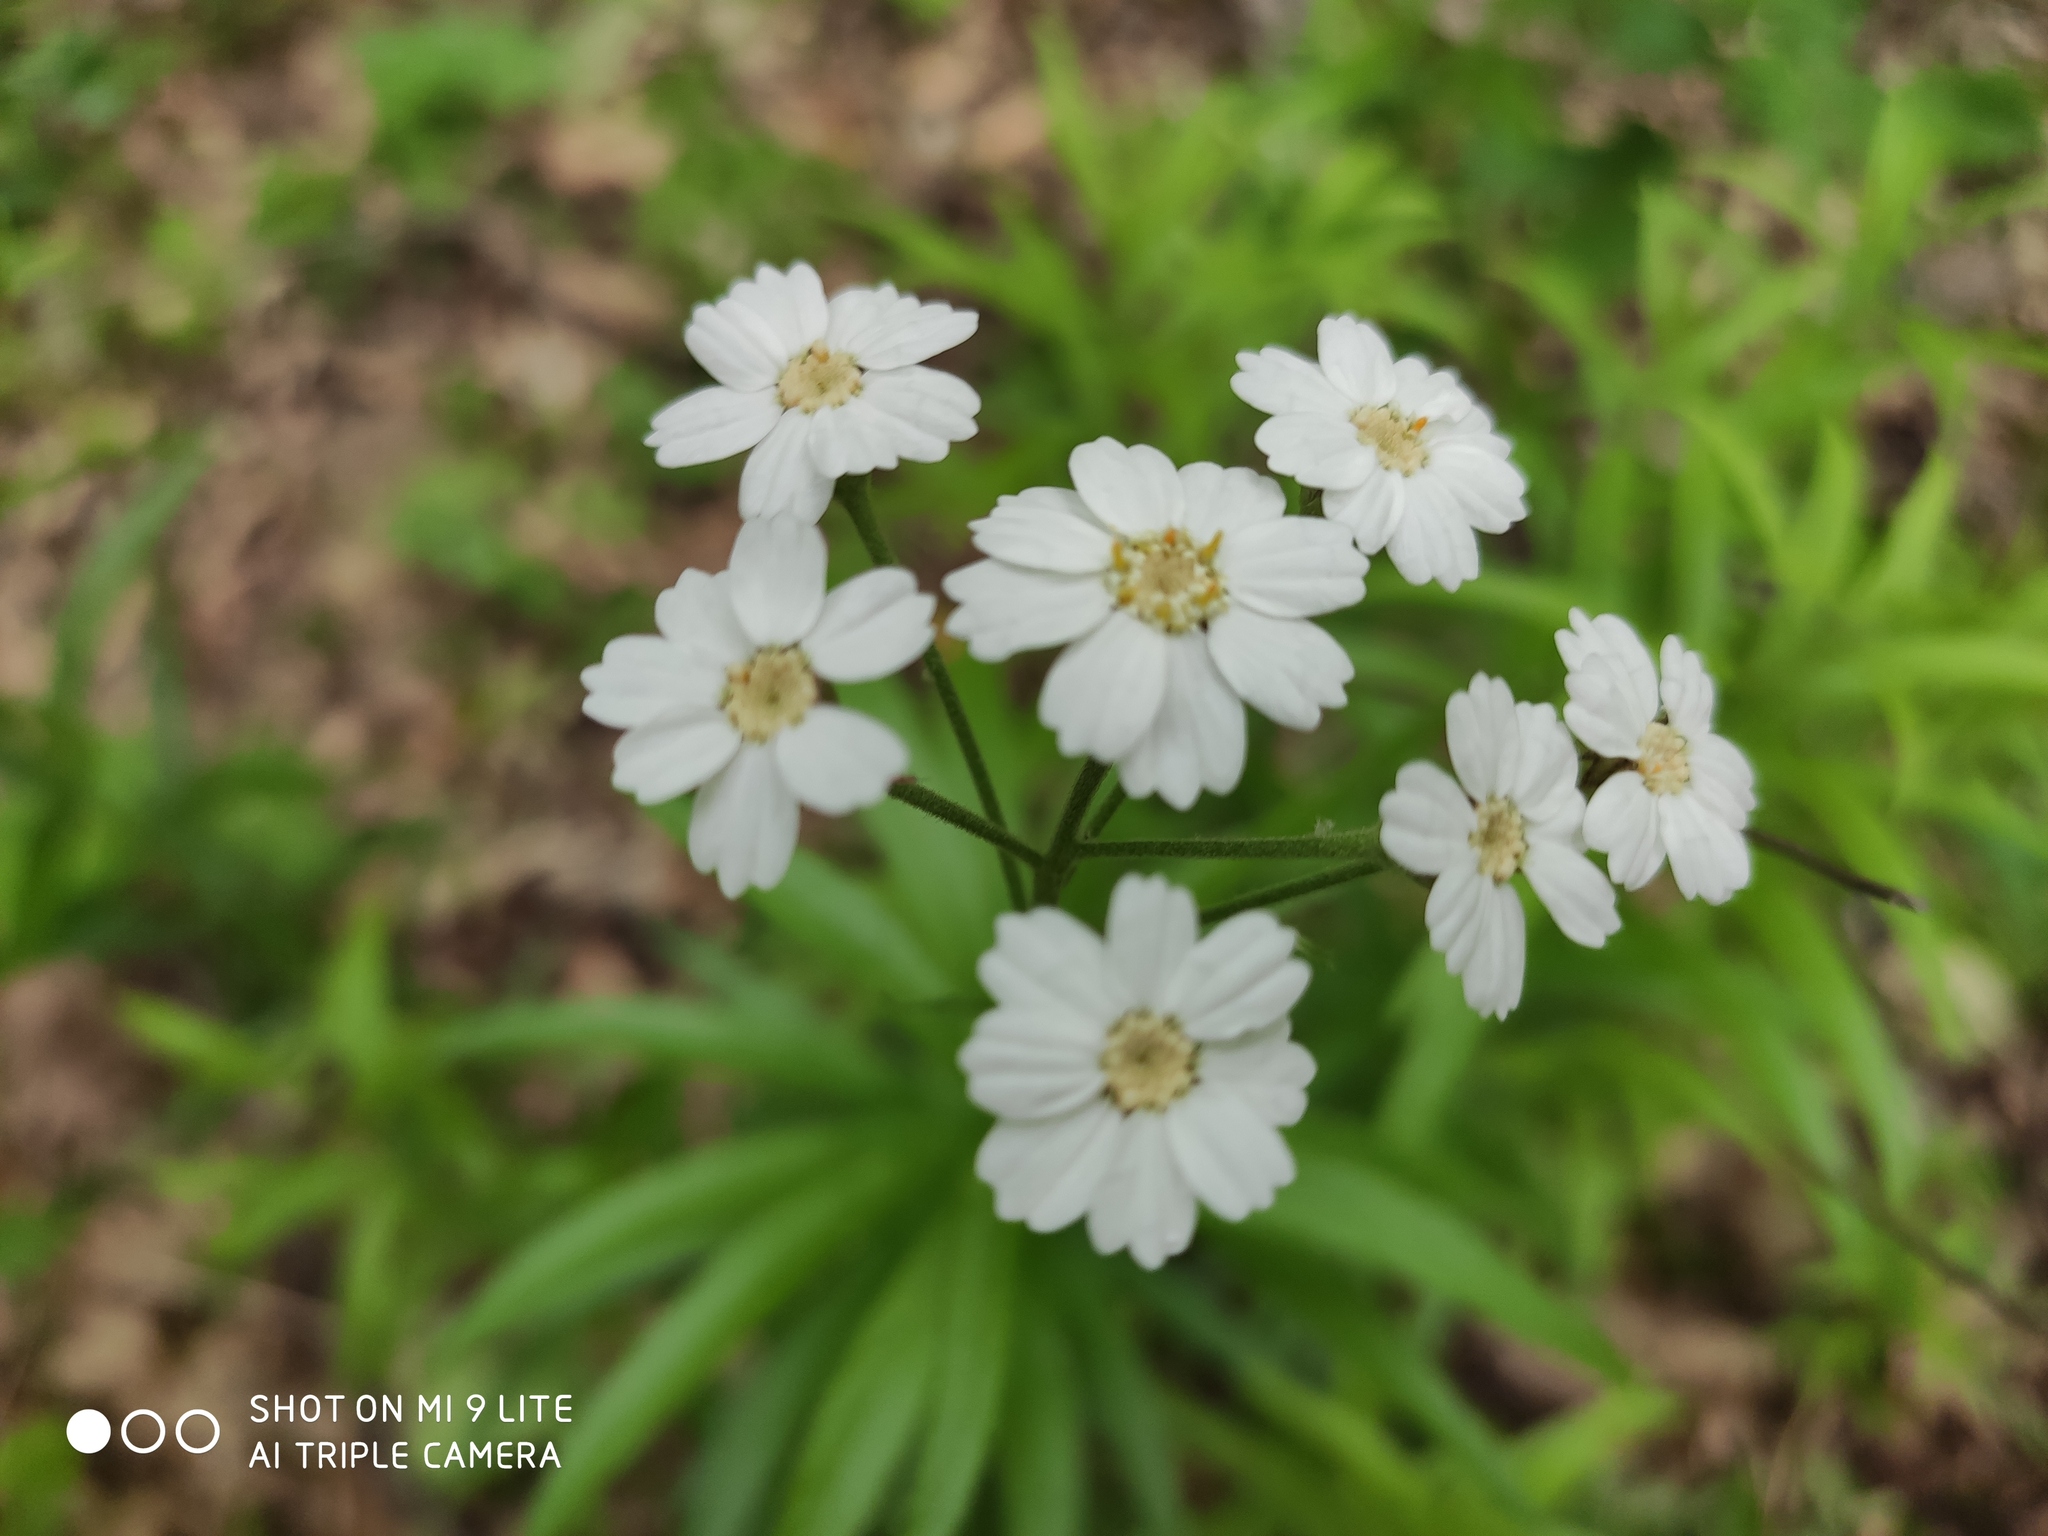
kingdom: Plantae
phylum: Tracheophyta
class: Magnoliopsida
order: Asterales
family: Asteraceae
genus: Achillea
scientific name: Achillea biserrata
